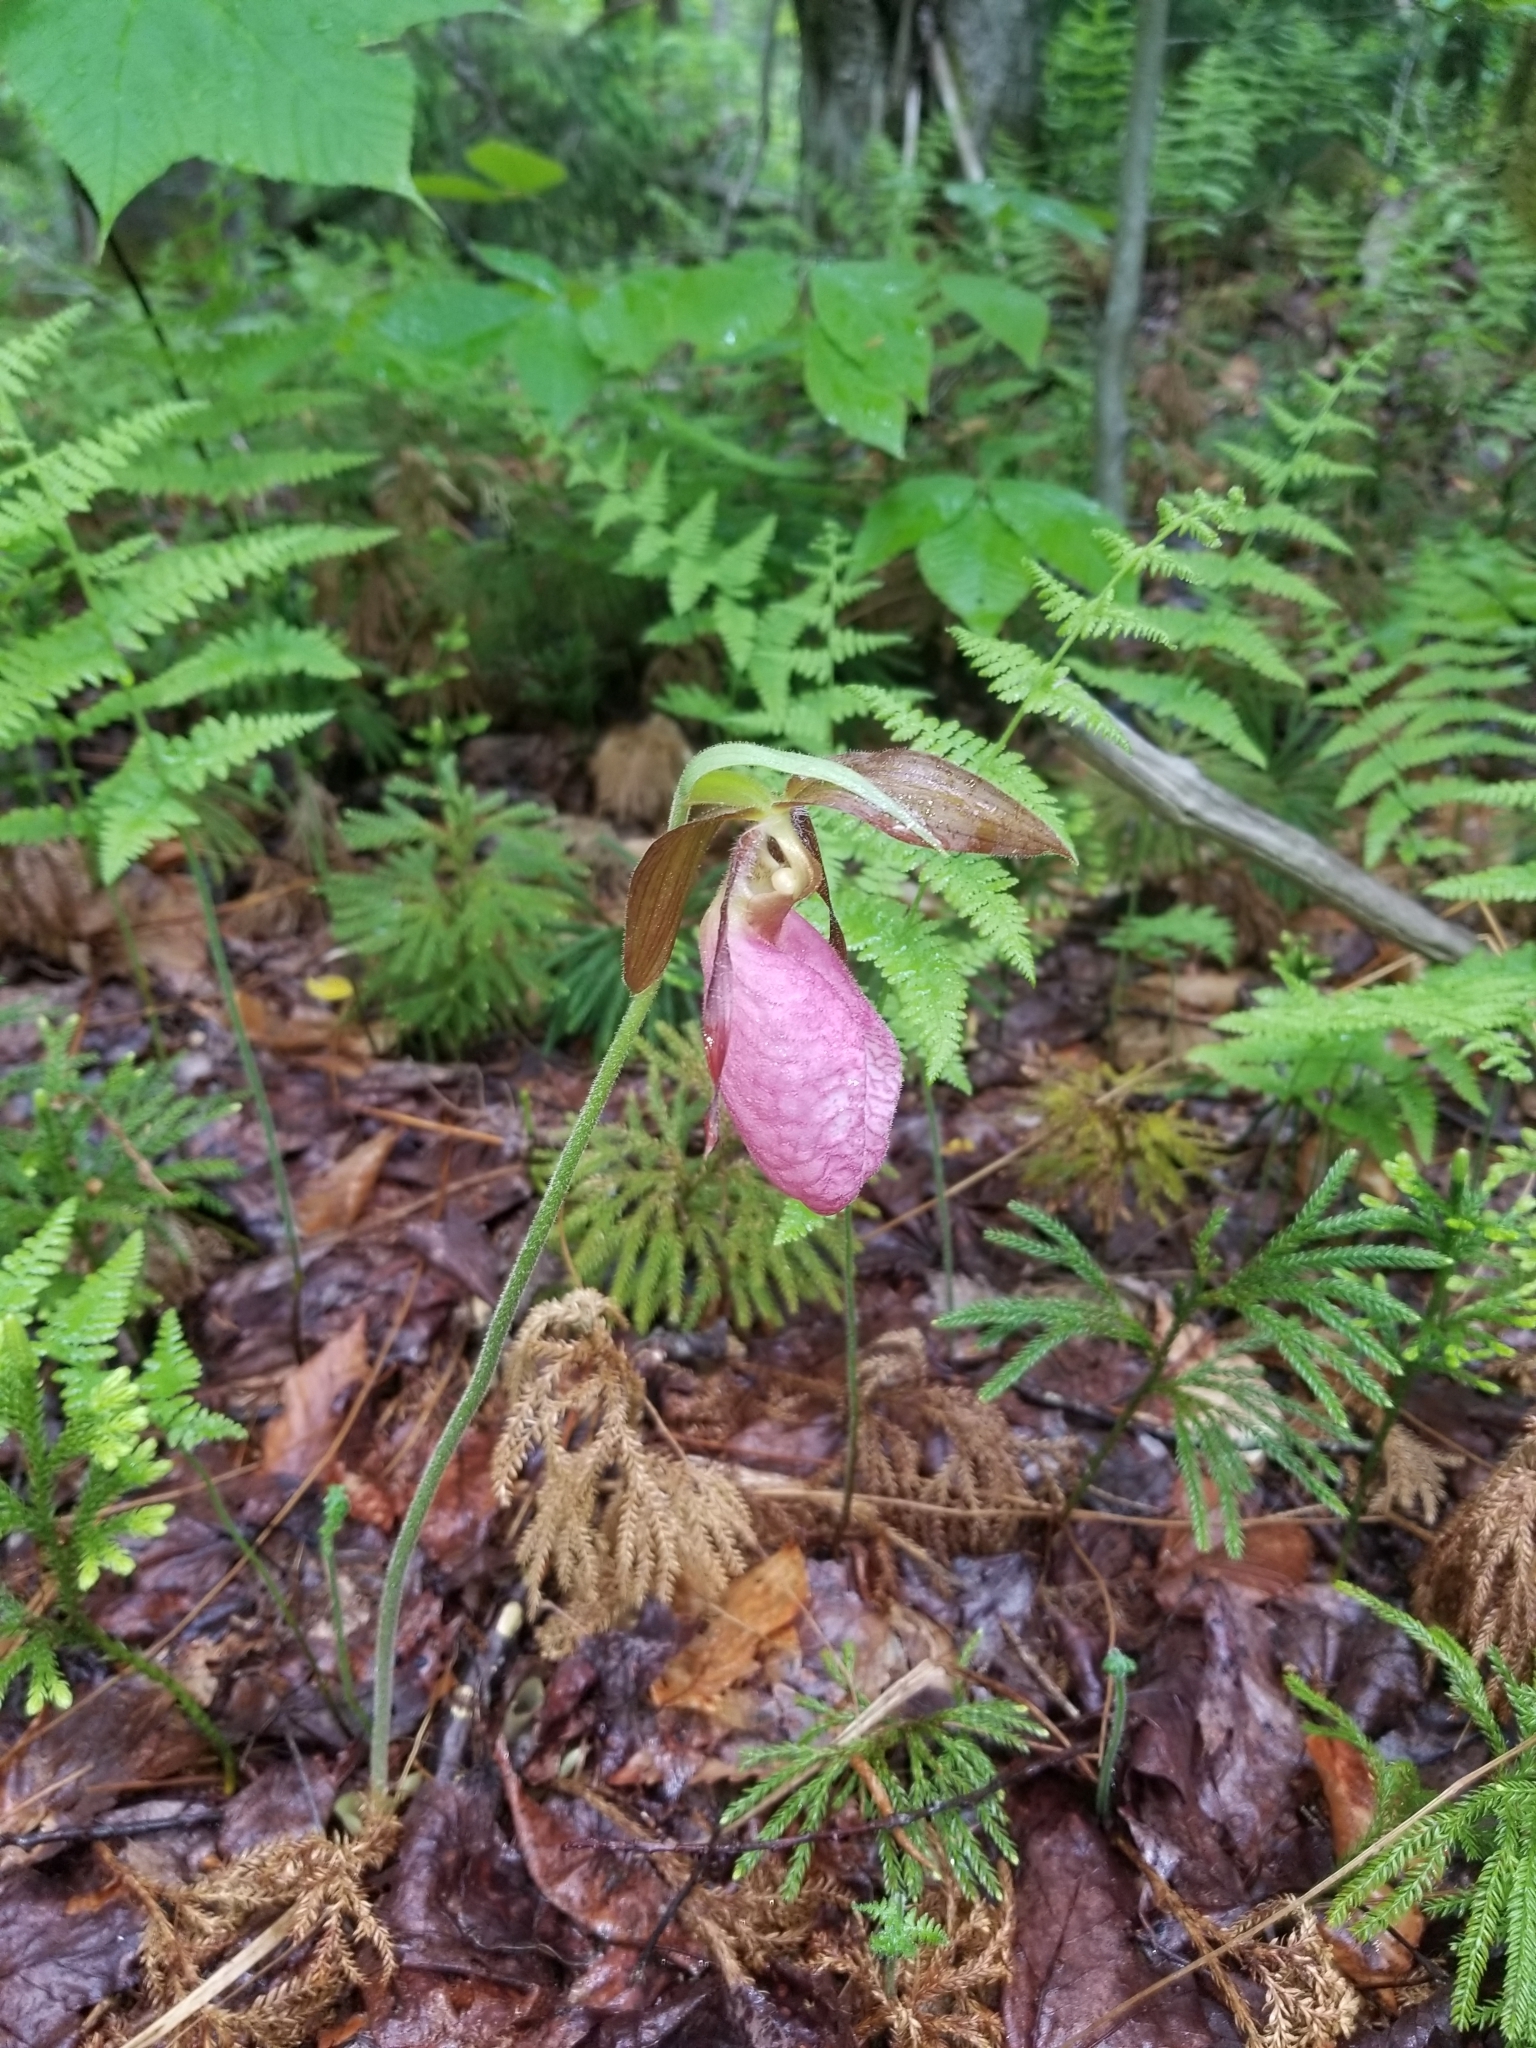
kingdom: Plantae
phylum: Tracheophyta
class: Liliopsida
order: Asparagales
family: Orchidaceae
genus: Cypripedium
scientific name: Cypripedium acaule
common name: Pink lady's-slipper
